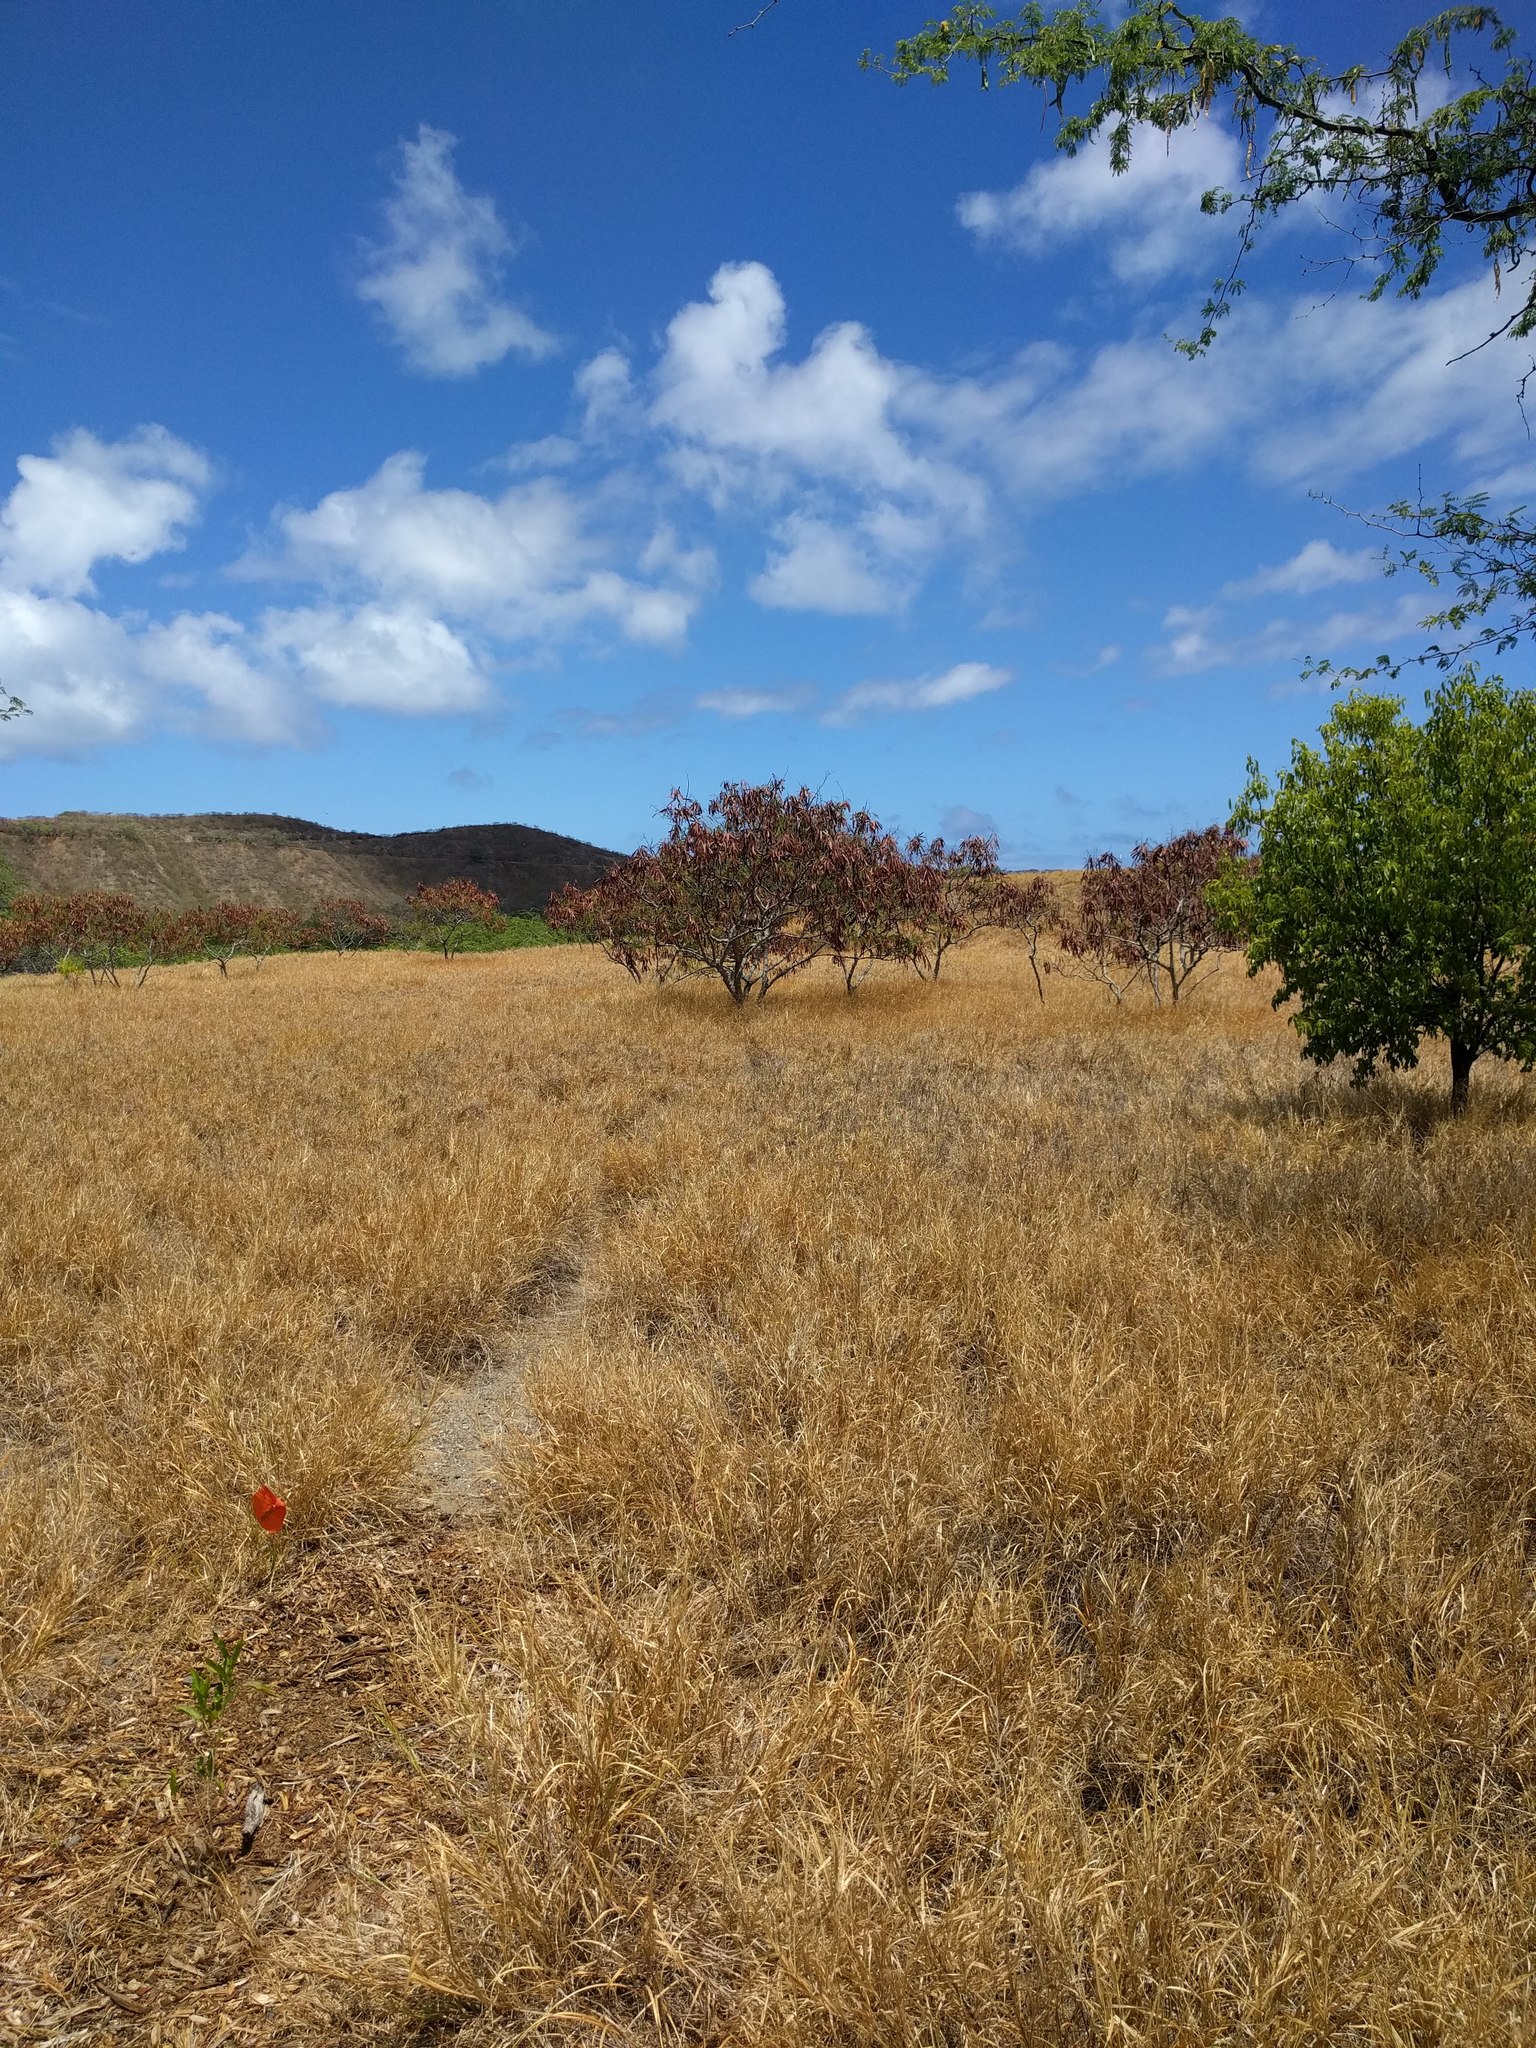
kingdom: Plantae
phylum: Tracheophyta
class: Magnoliopsida
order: Fabales
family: Fabaceae
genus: Leucaena
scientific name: Leucaena leucocephala
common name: White leadtree
